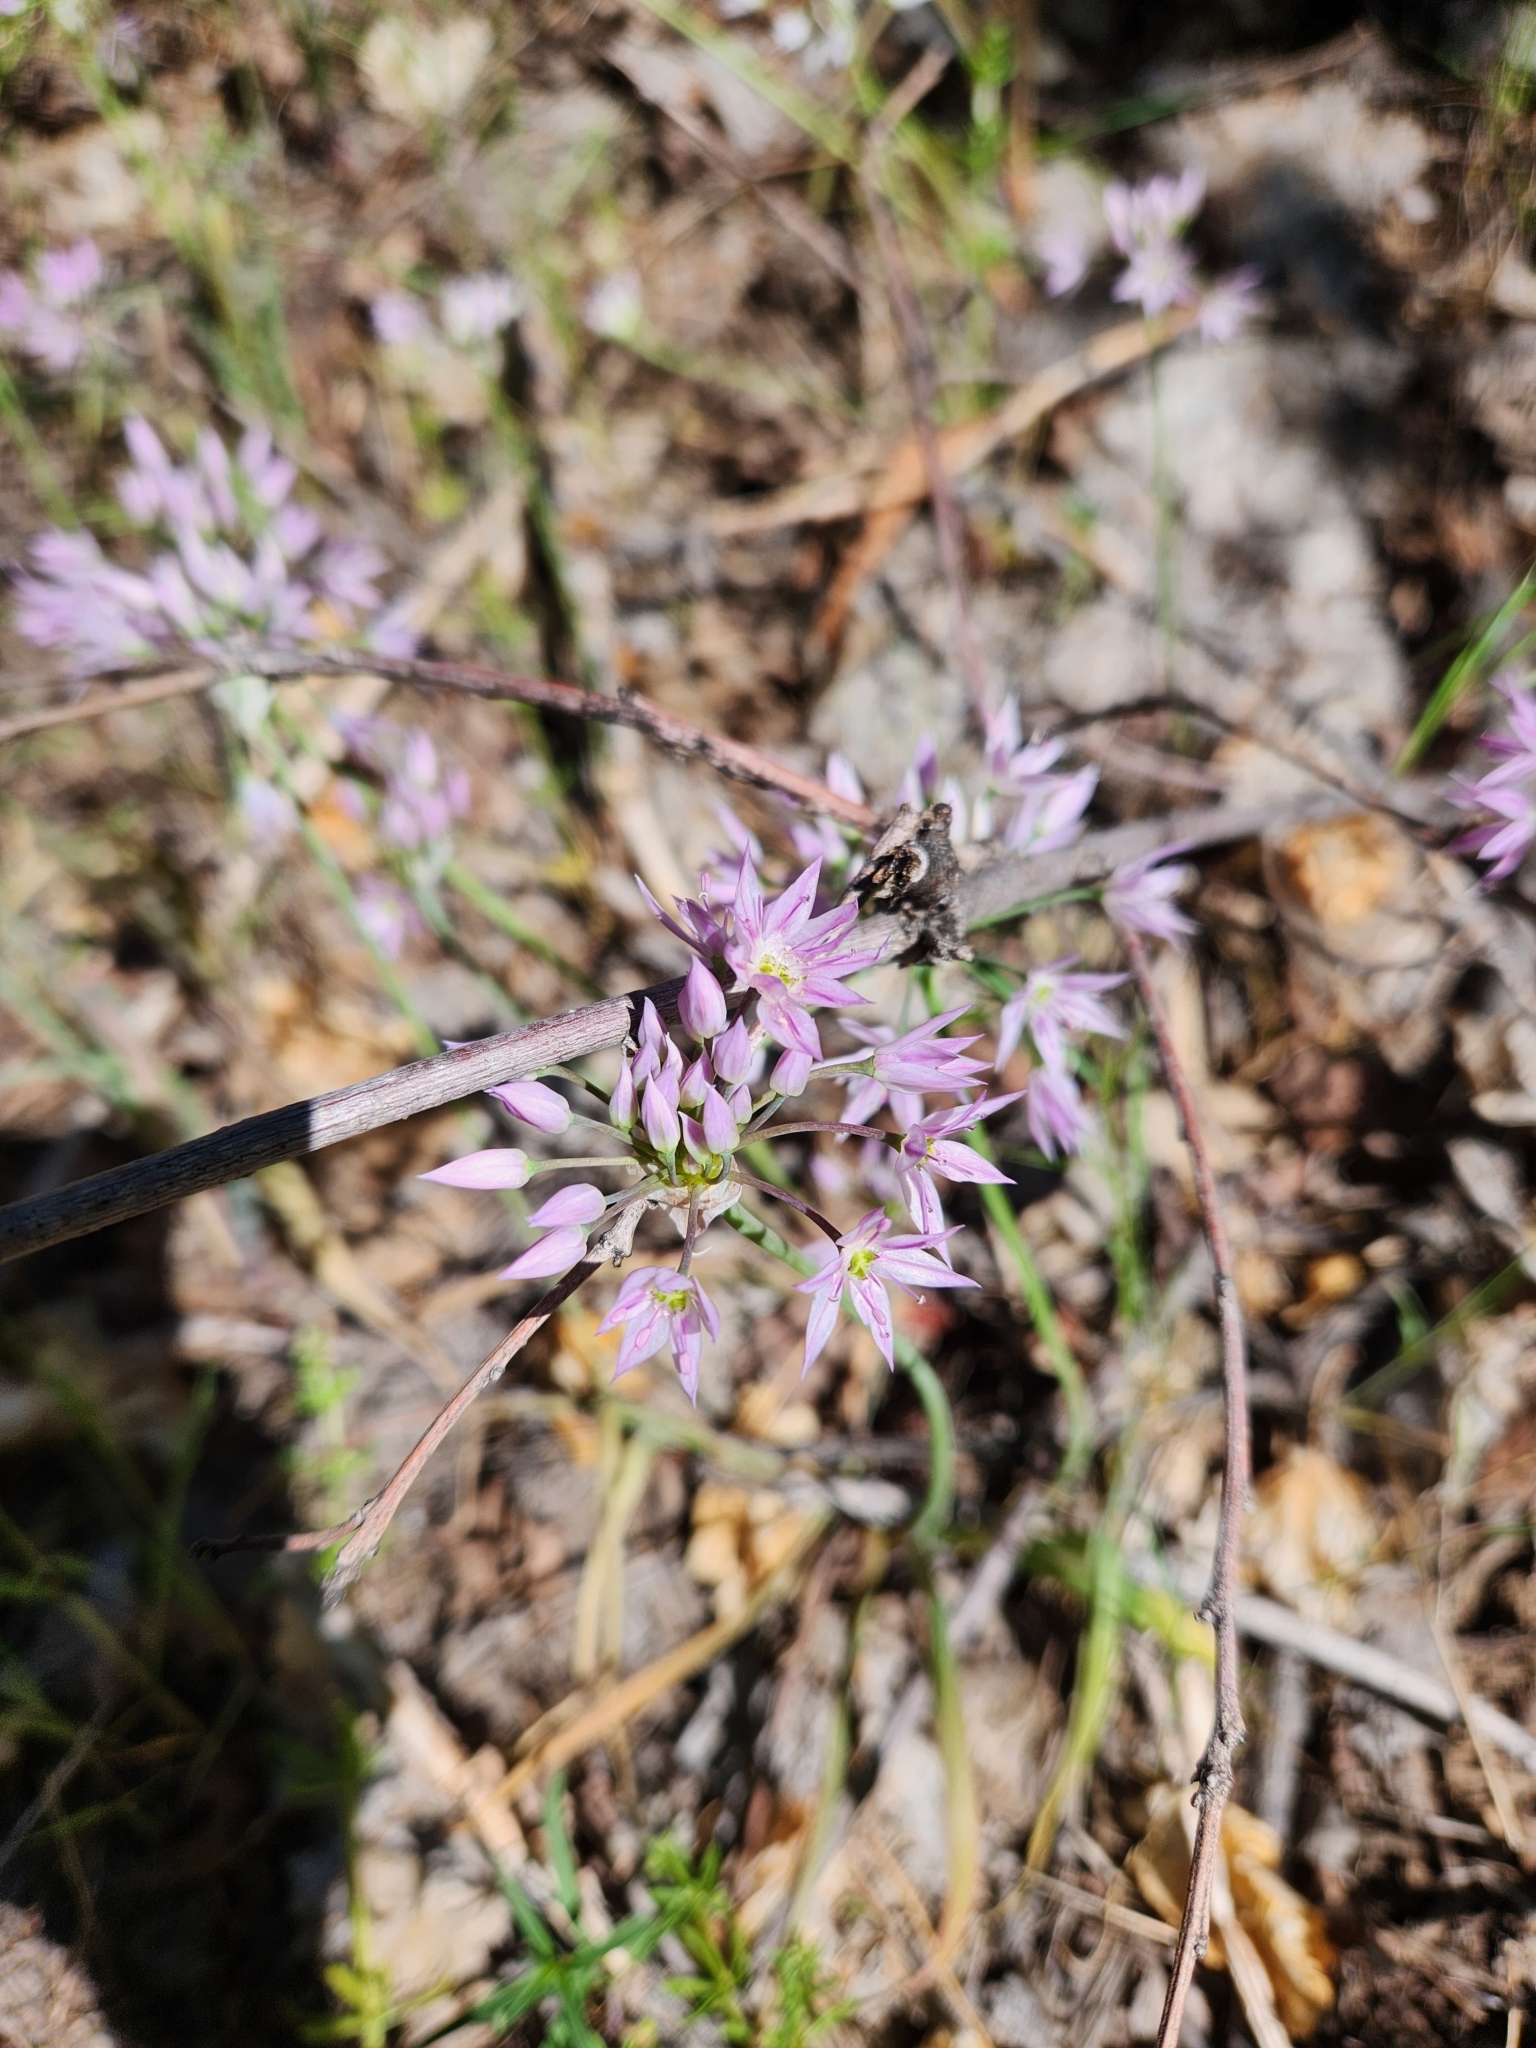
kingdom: Plantae
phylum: Tracheophyta
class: Liliopsida
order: Asparagales
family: Amaryllidaceae
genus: Allium
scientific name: Allium bisceptrum
